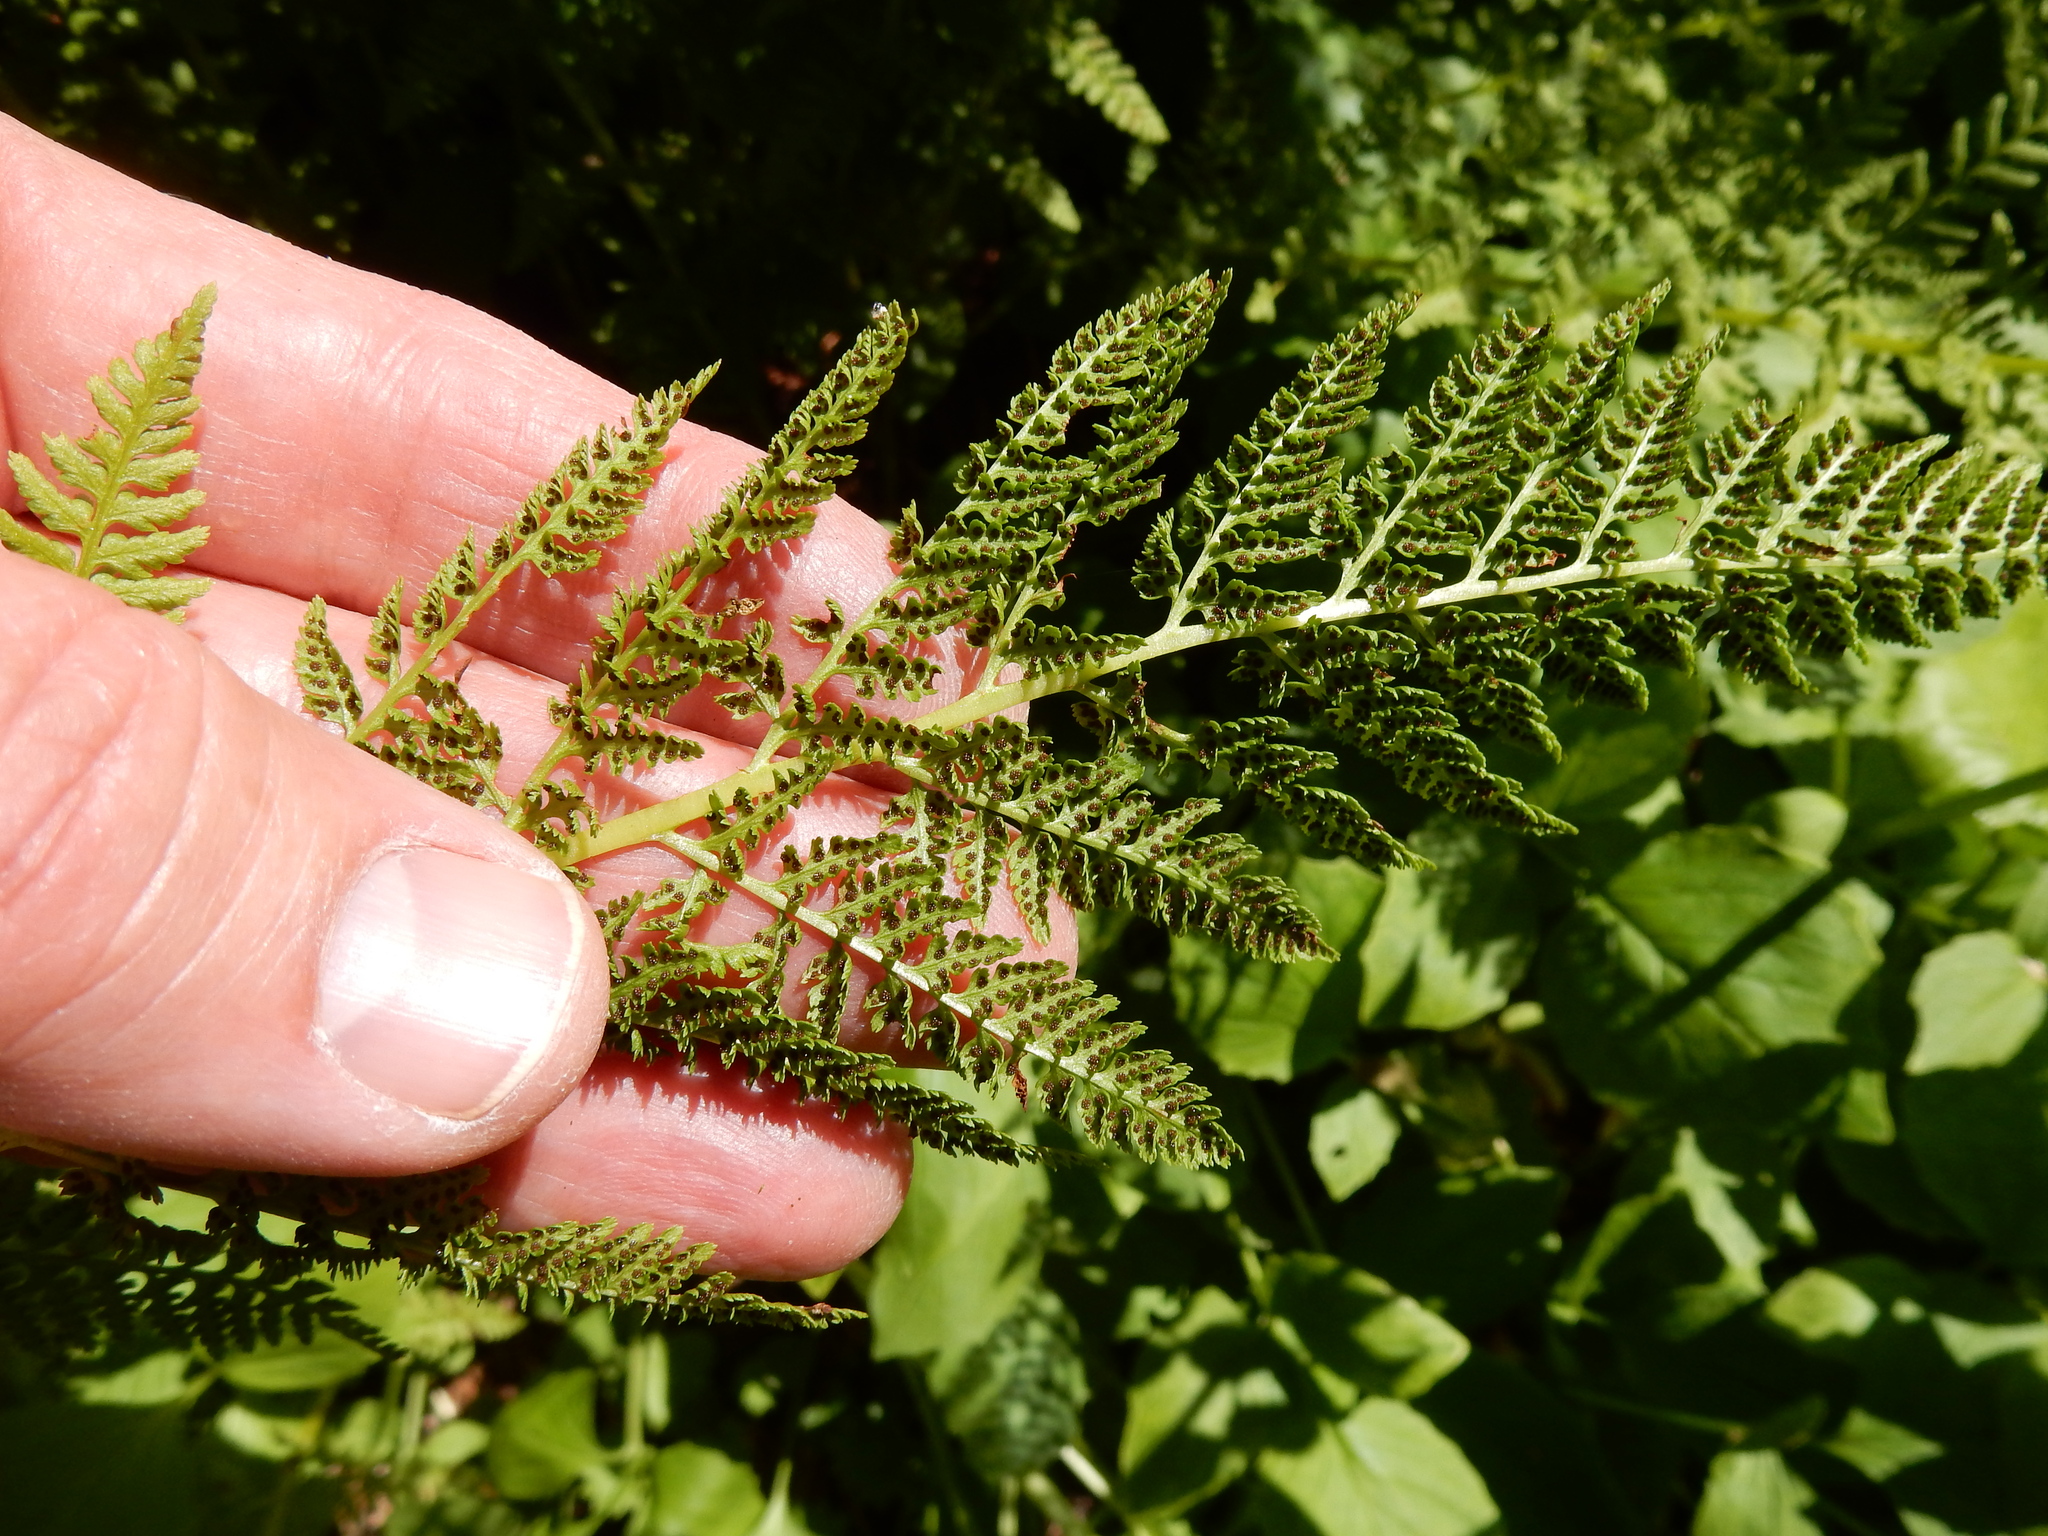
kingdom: Plantae
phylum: Tracheophyta
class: Polypodiopsida
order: Polypodiales
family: Athyriaceae
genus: Athyrium
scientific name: Athyrium americanum
